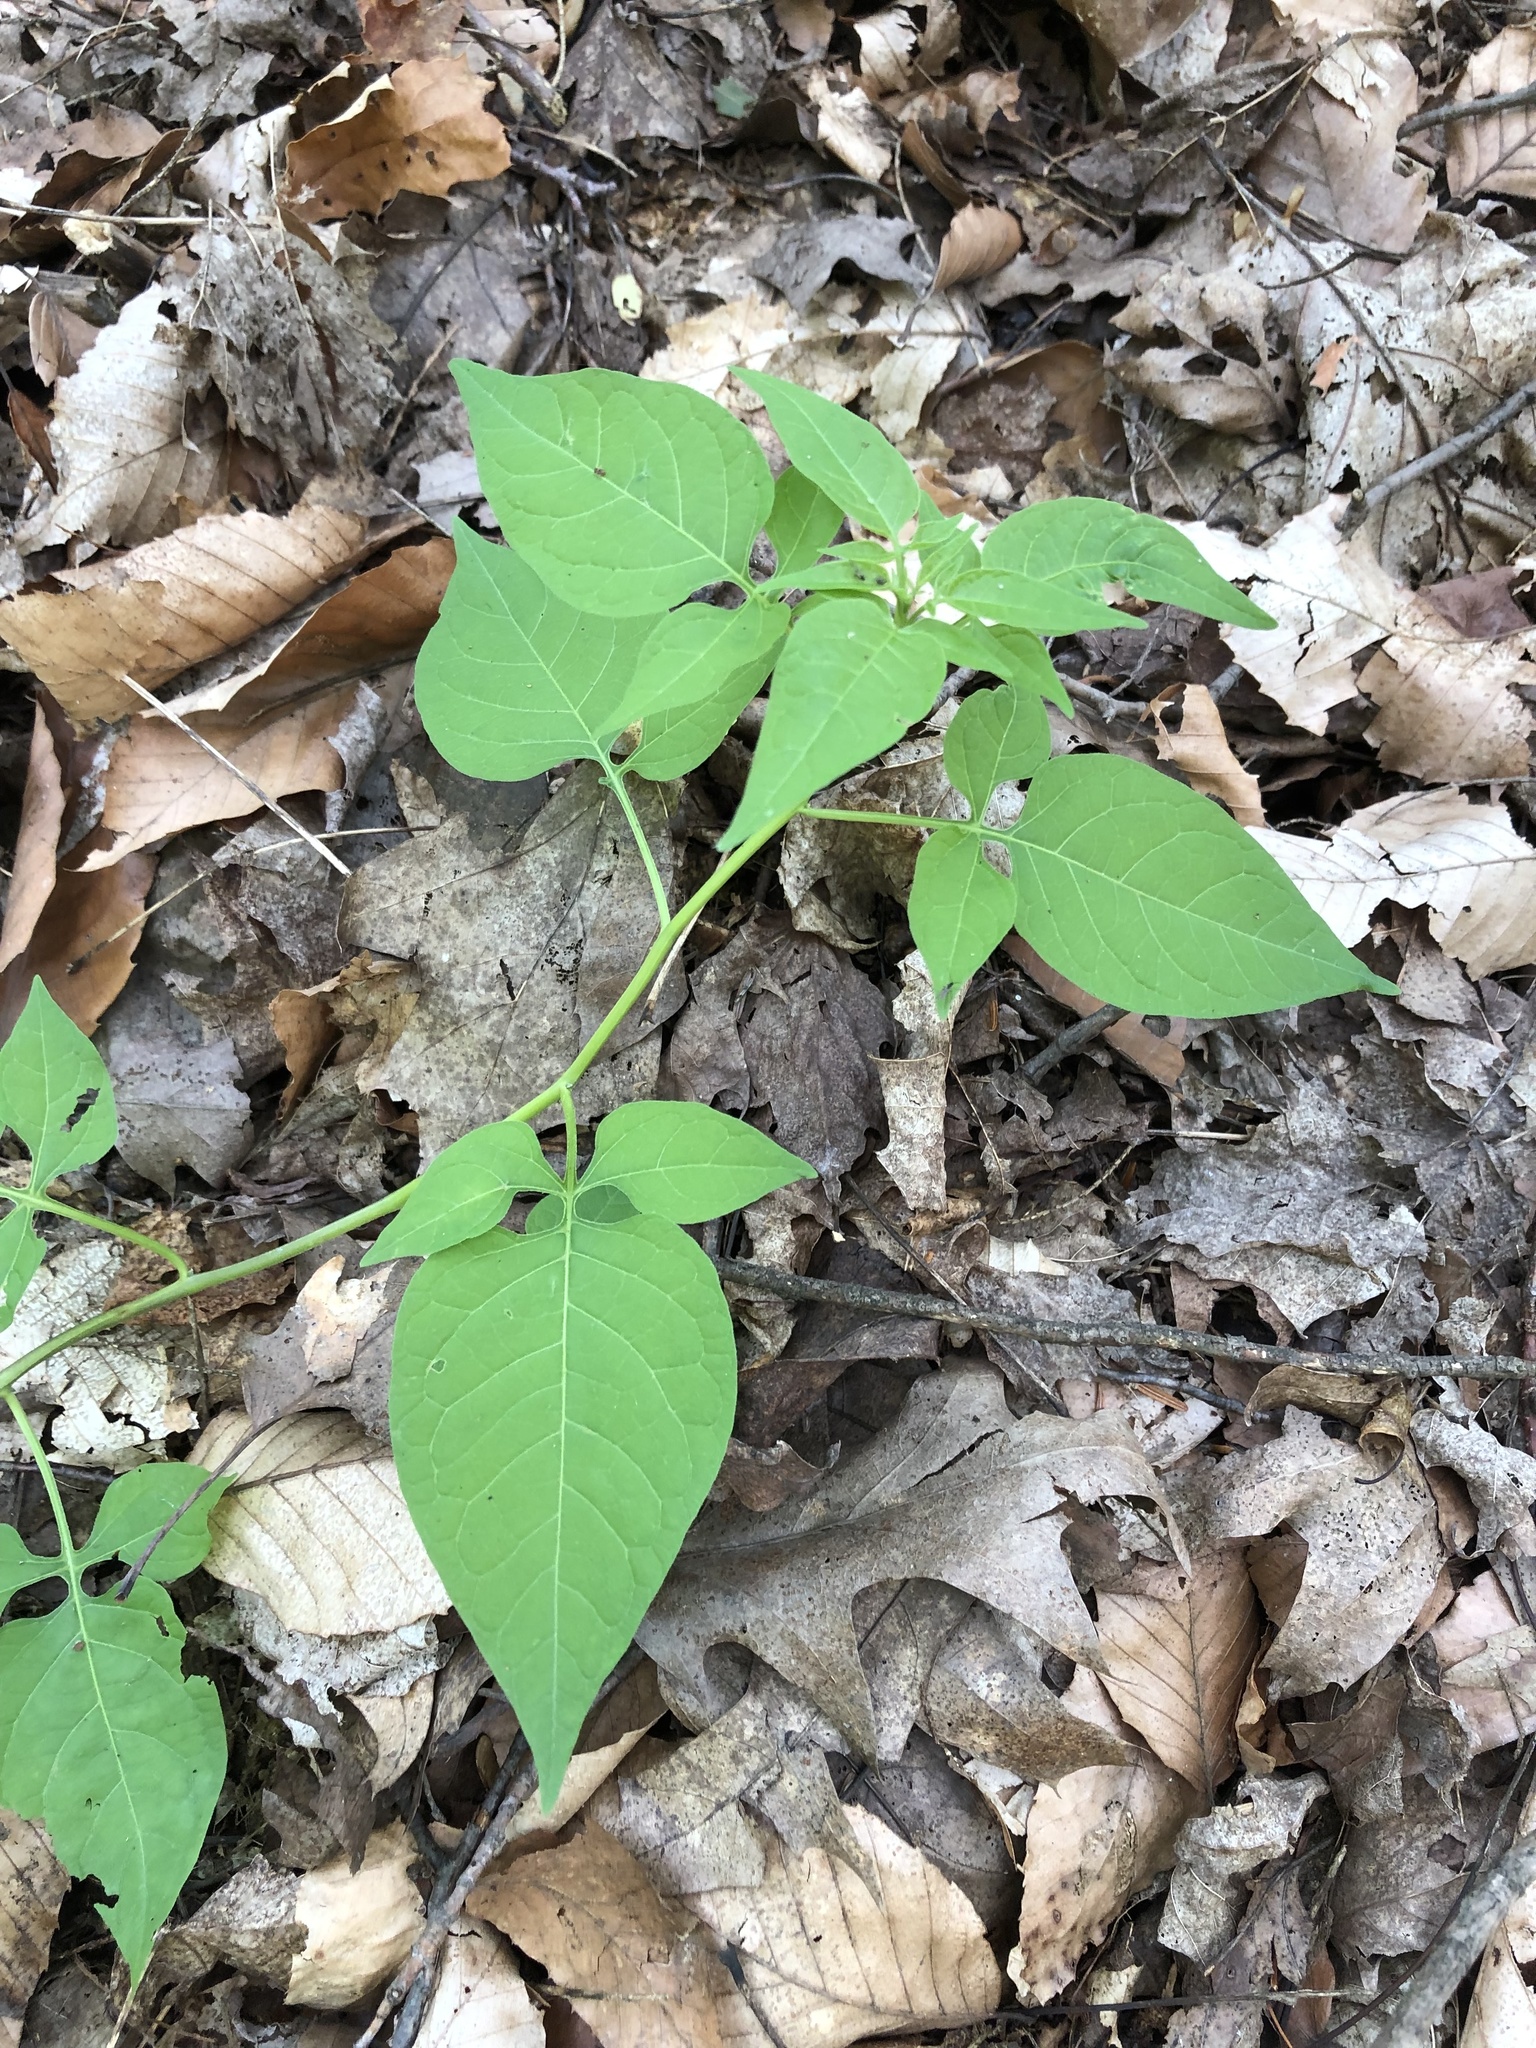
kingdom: Plantae
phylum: Tracheophyta
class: Magnoliopsida
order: Solanales
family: Solanaceae
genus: Solanum
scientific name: Solanum dulcamara
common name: Climbing nightshade
